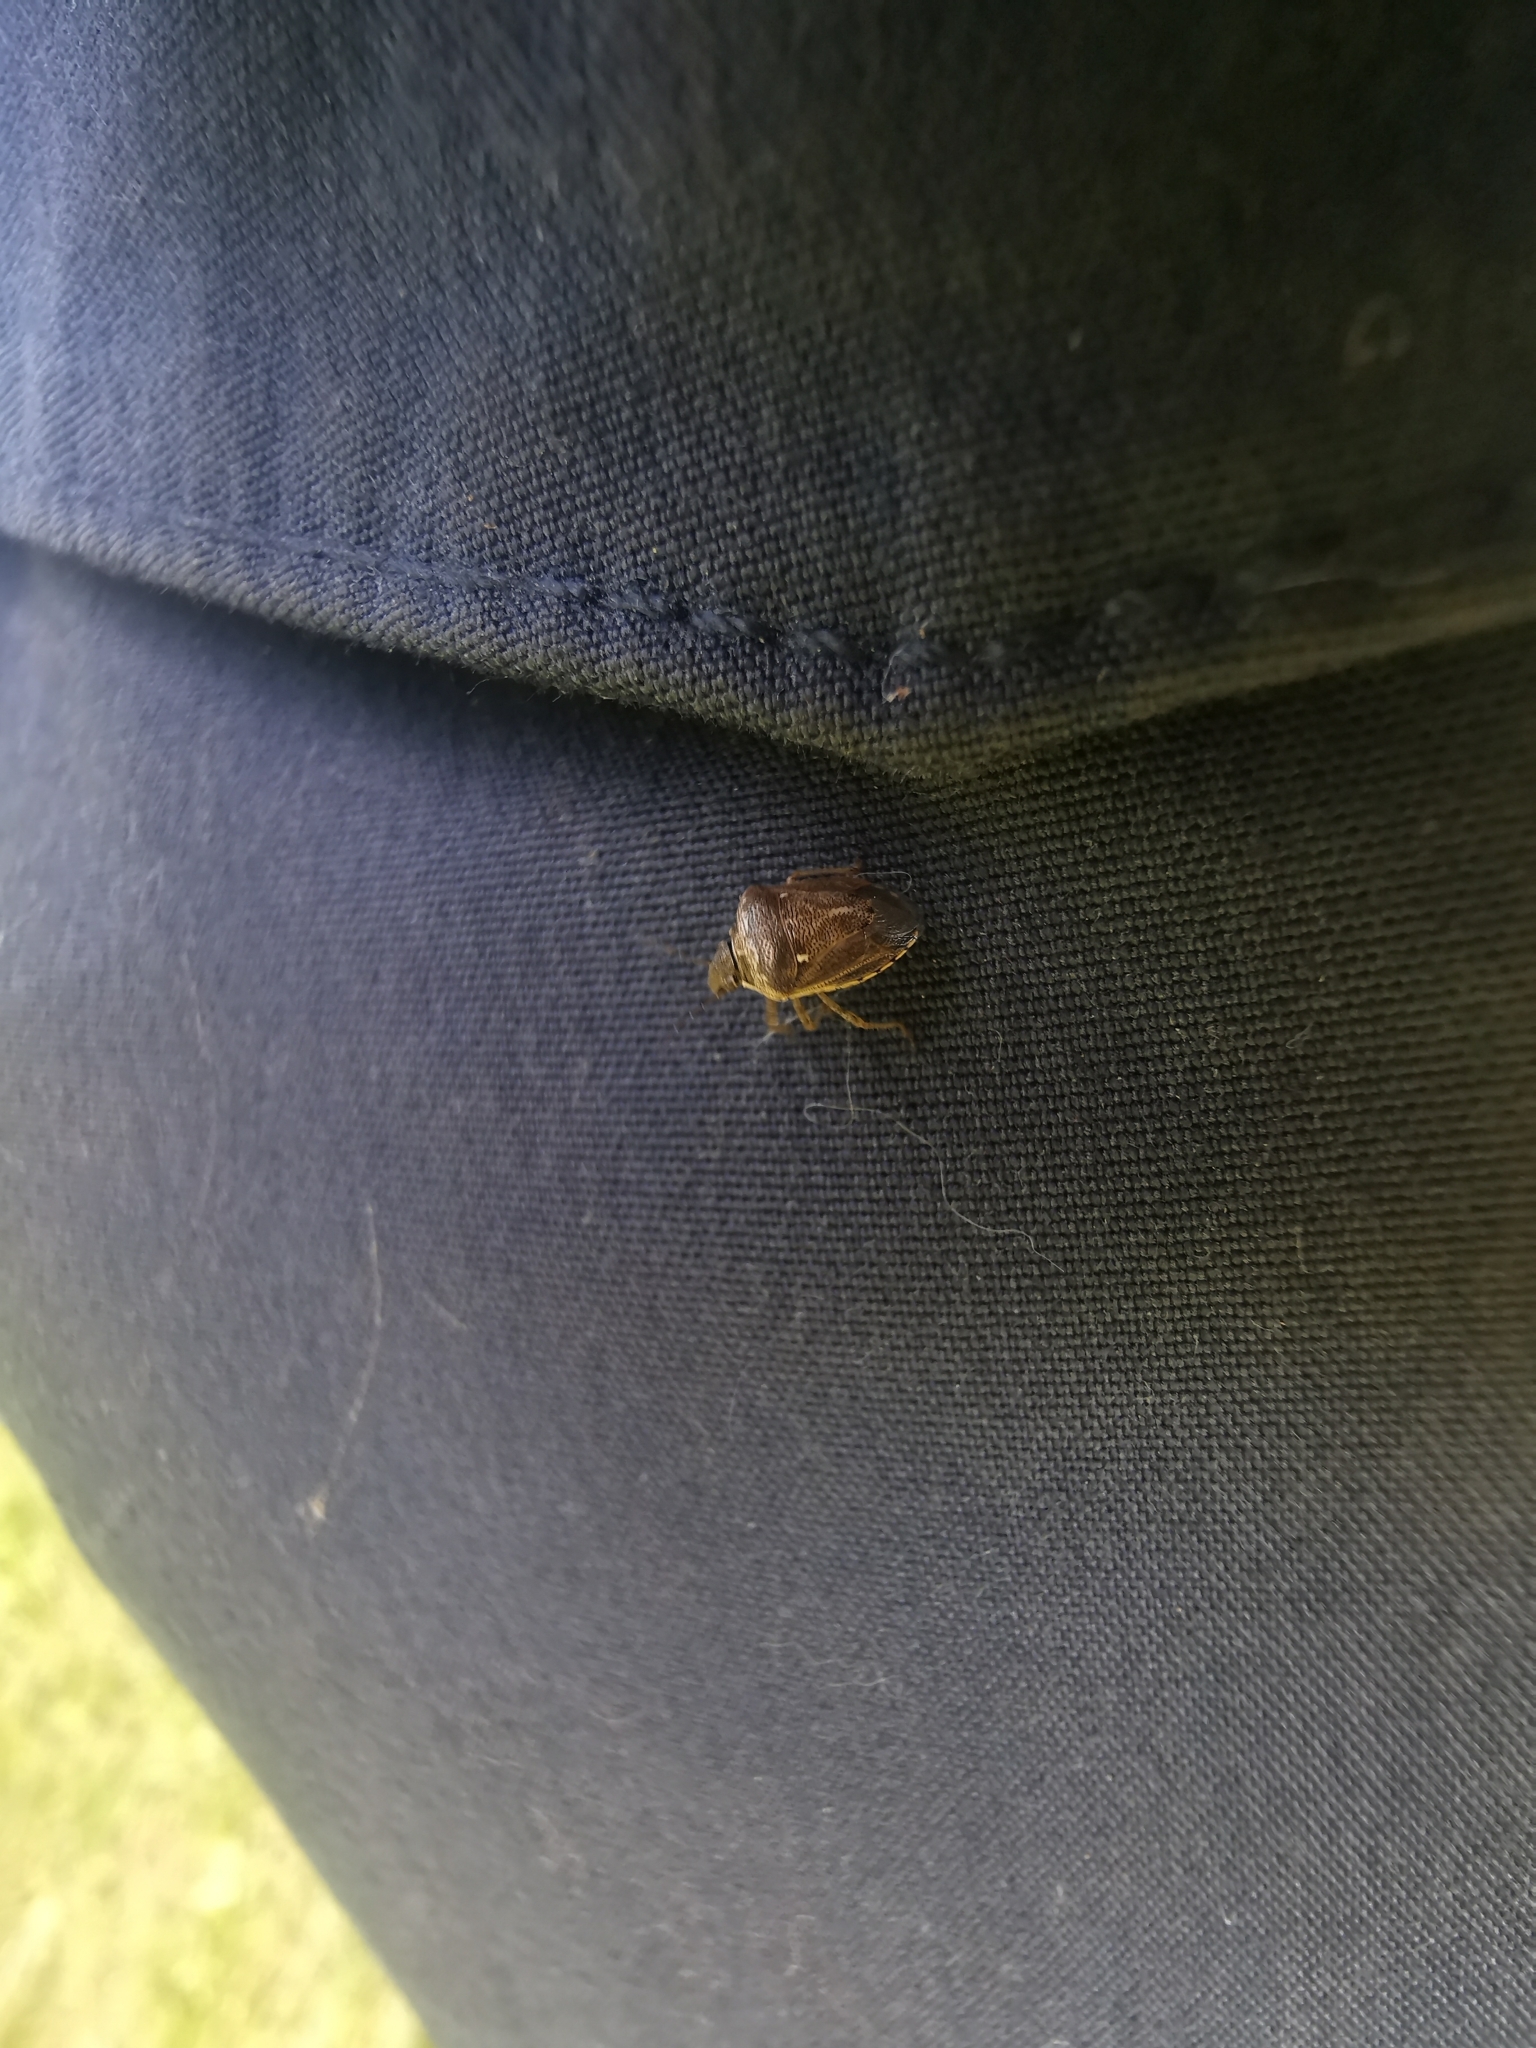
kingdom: Animalia
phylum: Arthropoda
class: Insecta
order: Hemiptera
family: Pentatomidae
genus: Eysarcoris
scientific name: Eysarcoris ventralis
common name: White-spotted stink bug
